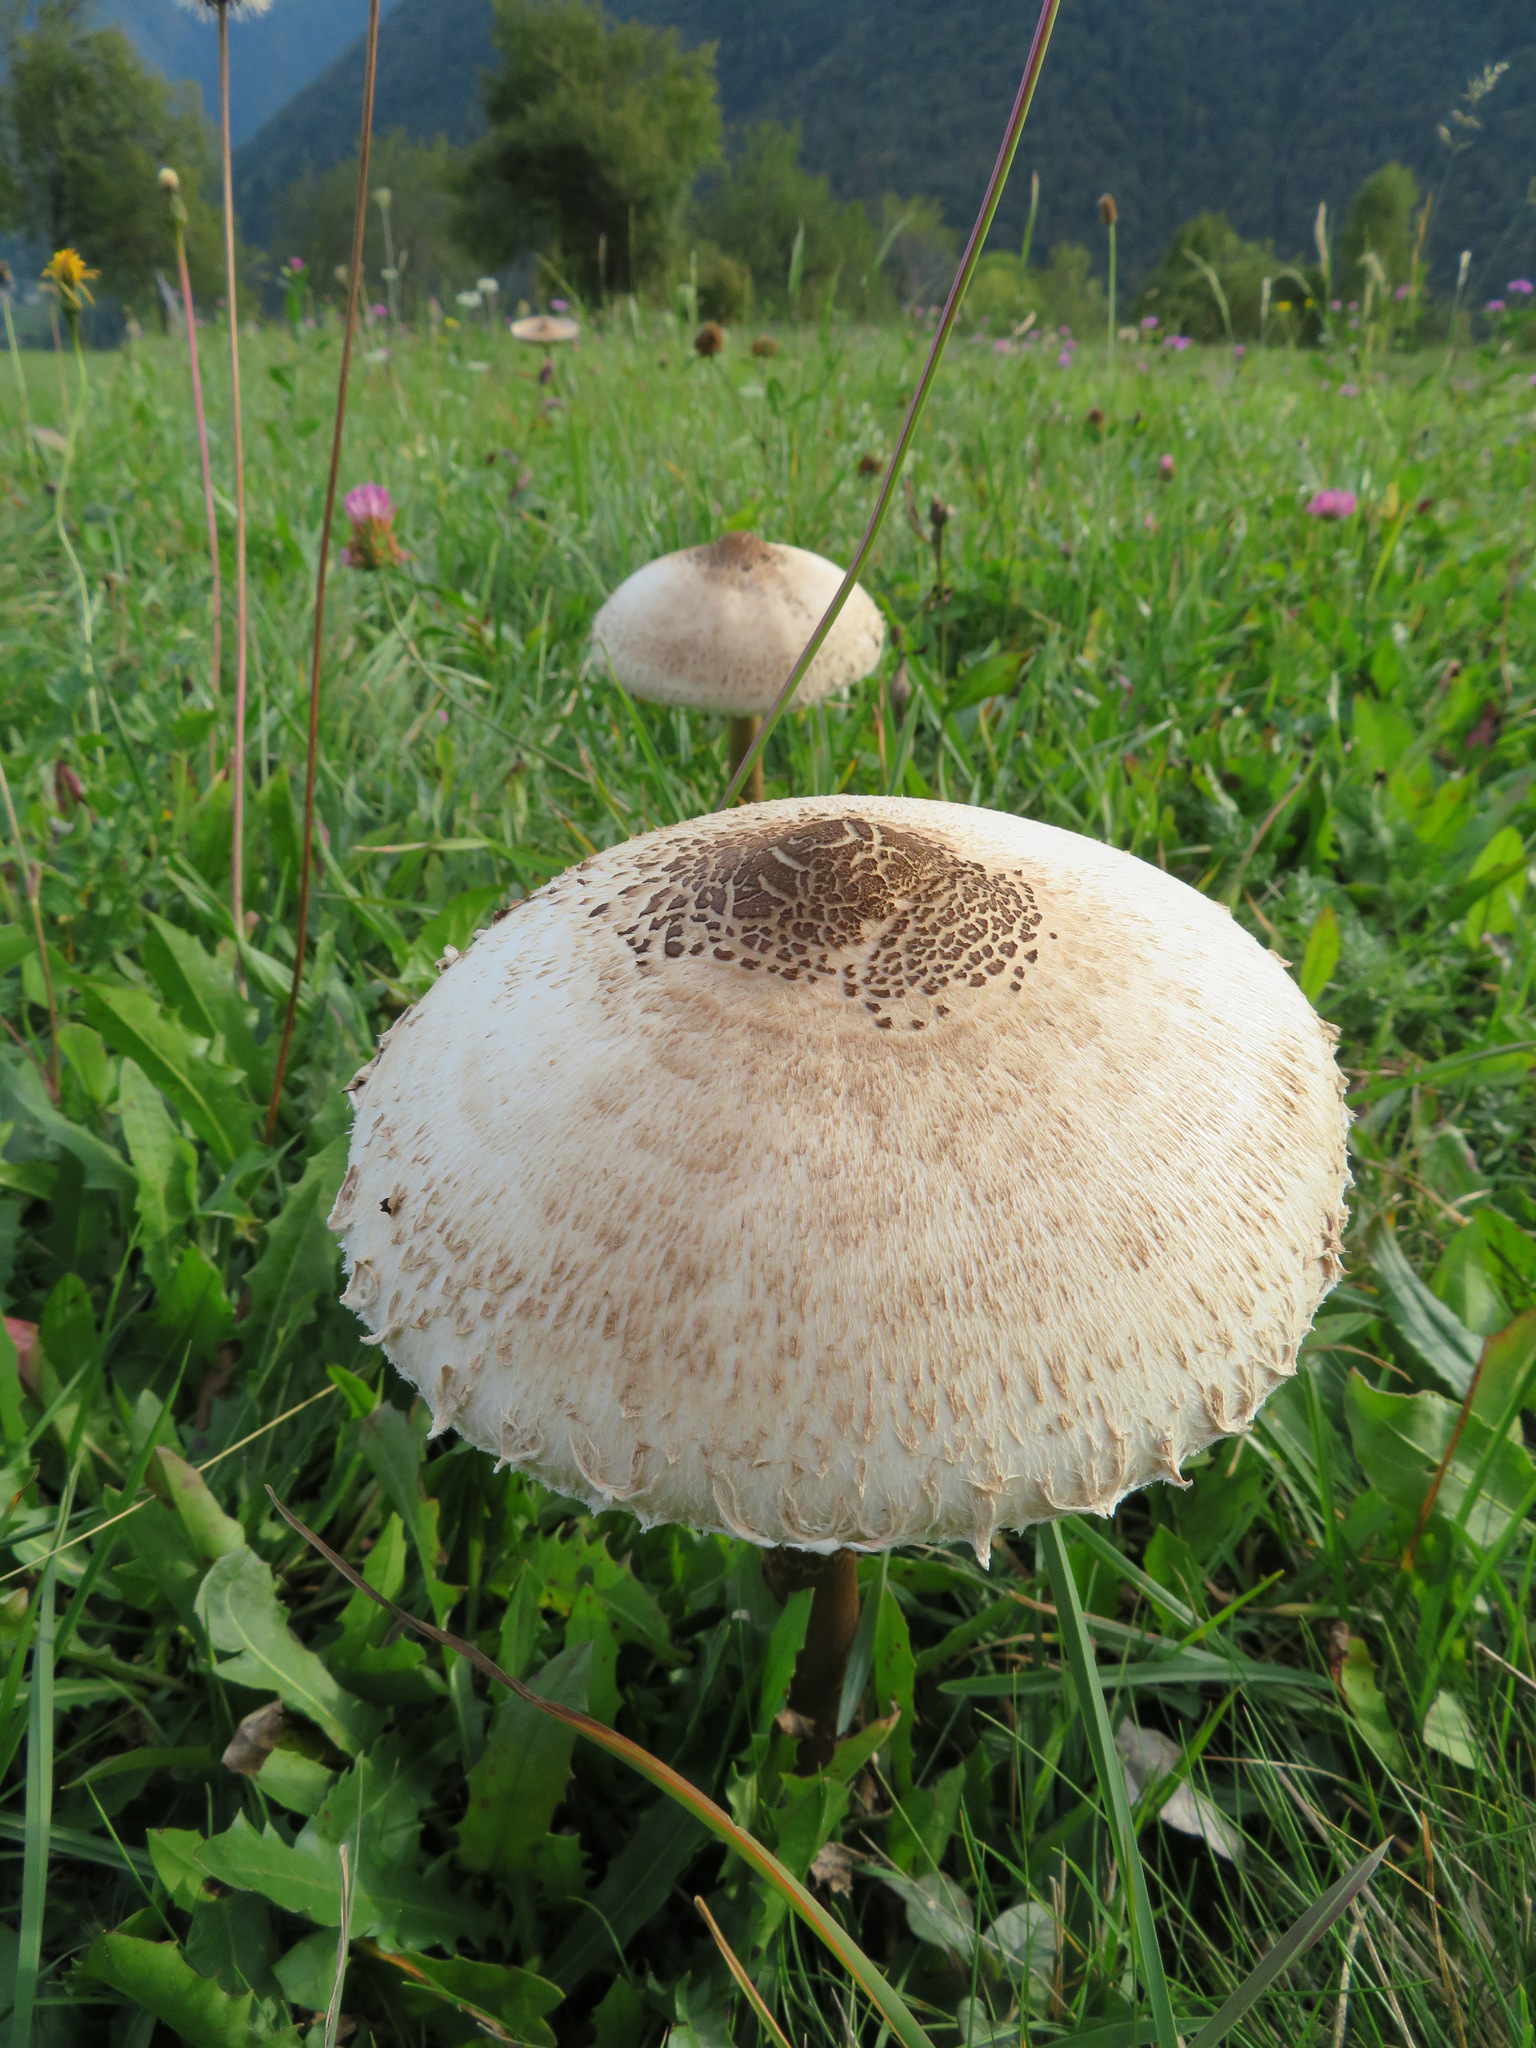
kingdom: Fungi
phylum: Basidiomycota
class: Agaricomycetes
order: Agaricales
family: Agaricaceae
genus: Macrolepiota
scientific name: Macrolepiota procera
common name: Parasol
